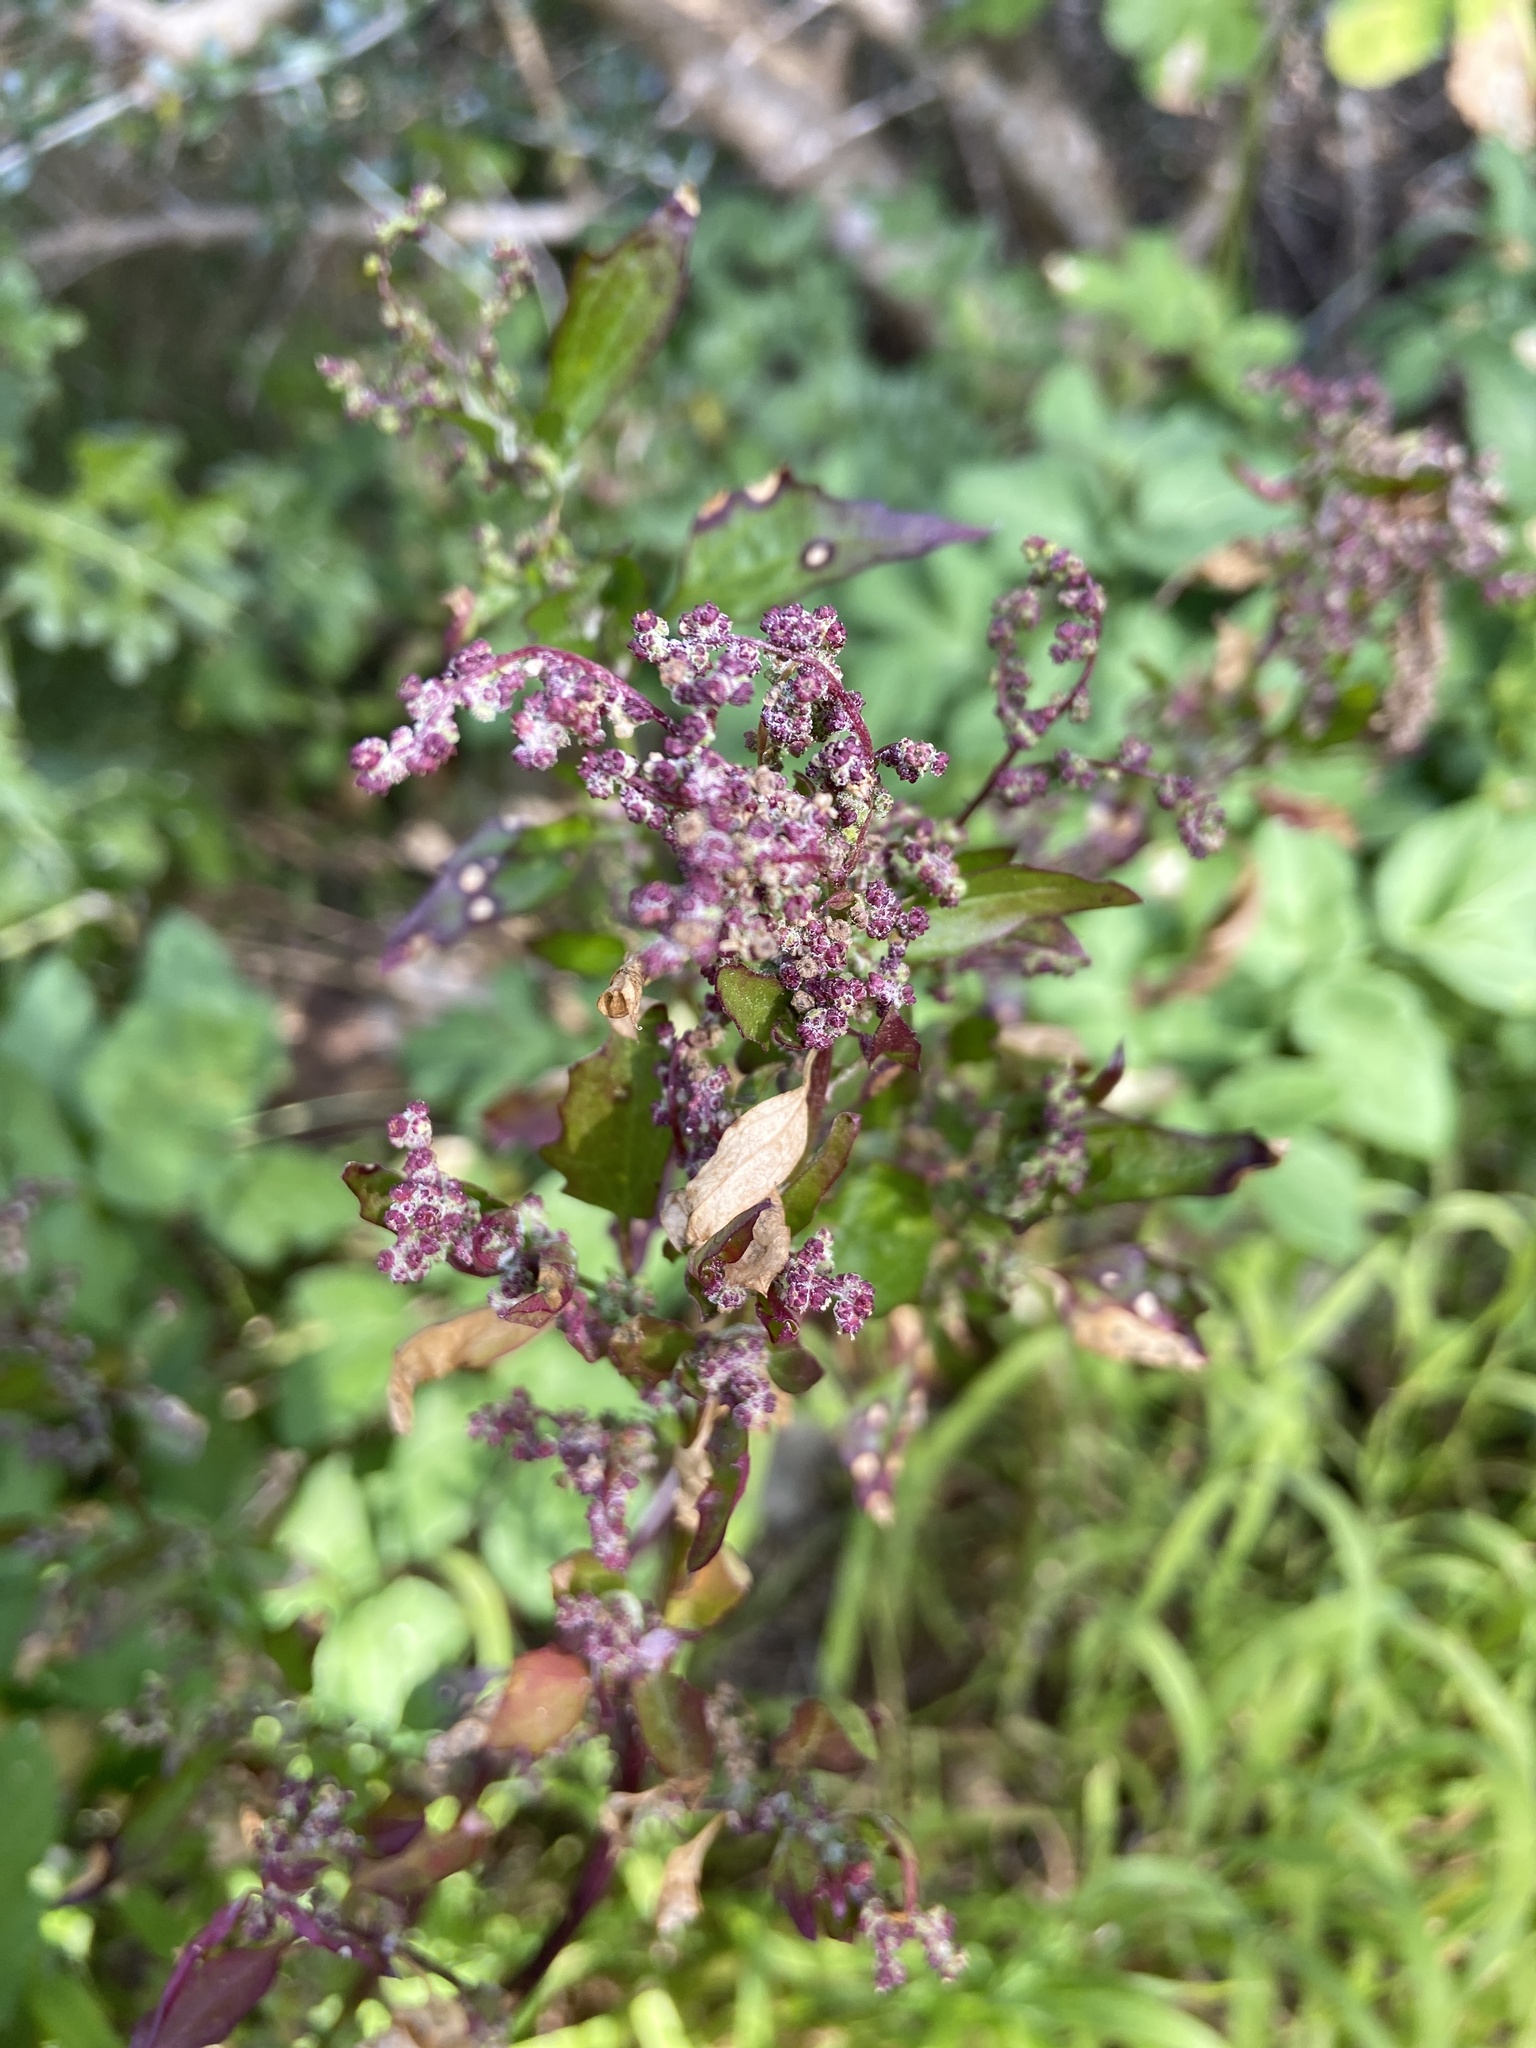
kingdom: Plantae
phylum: Tracheophyta
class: Magnoliopsida
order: Caryophyllales
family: Amaranthaceae
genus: Chenopodiastrum
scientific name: Chenopodiastrum murale
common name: Sowbane
